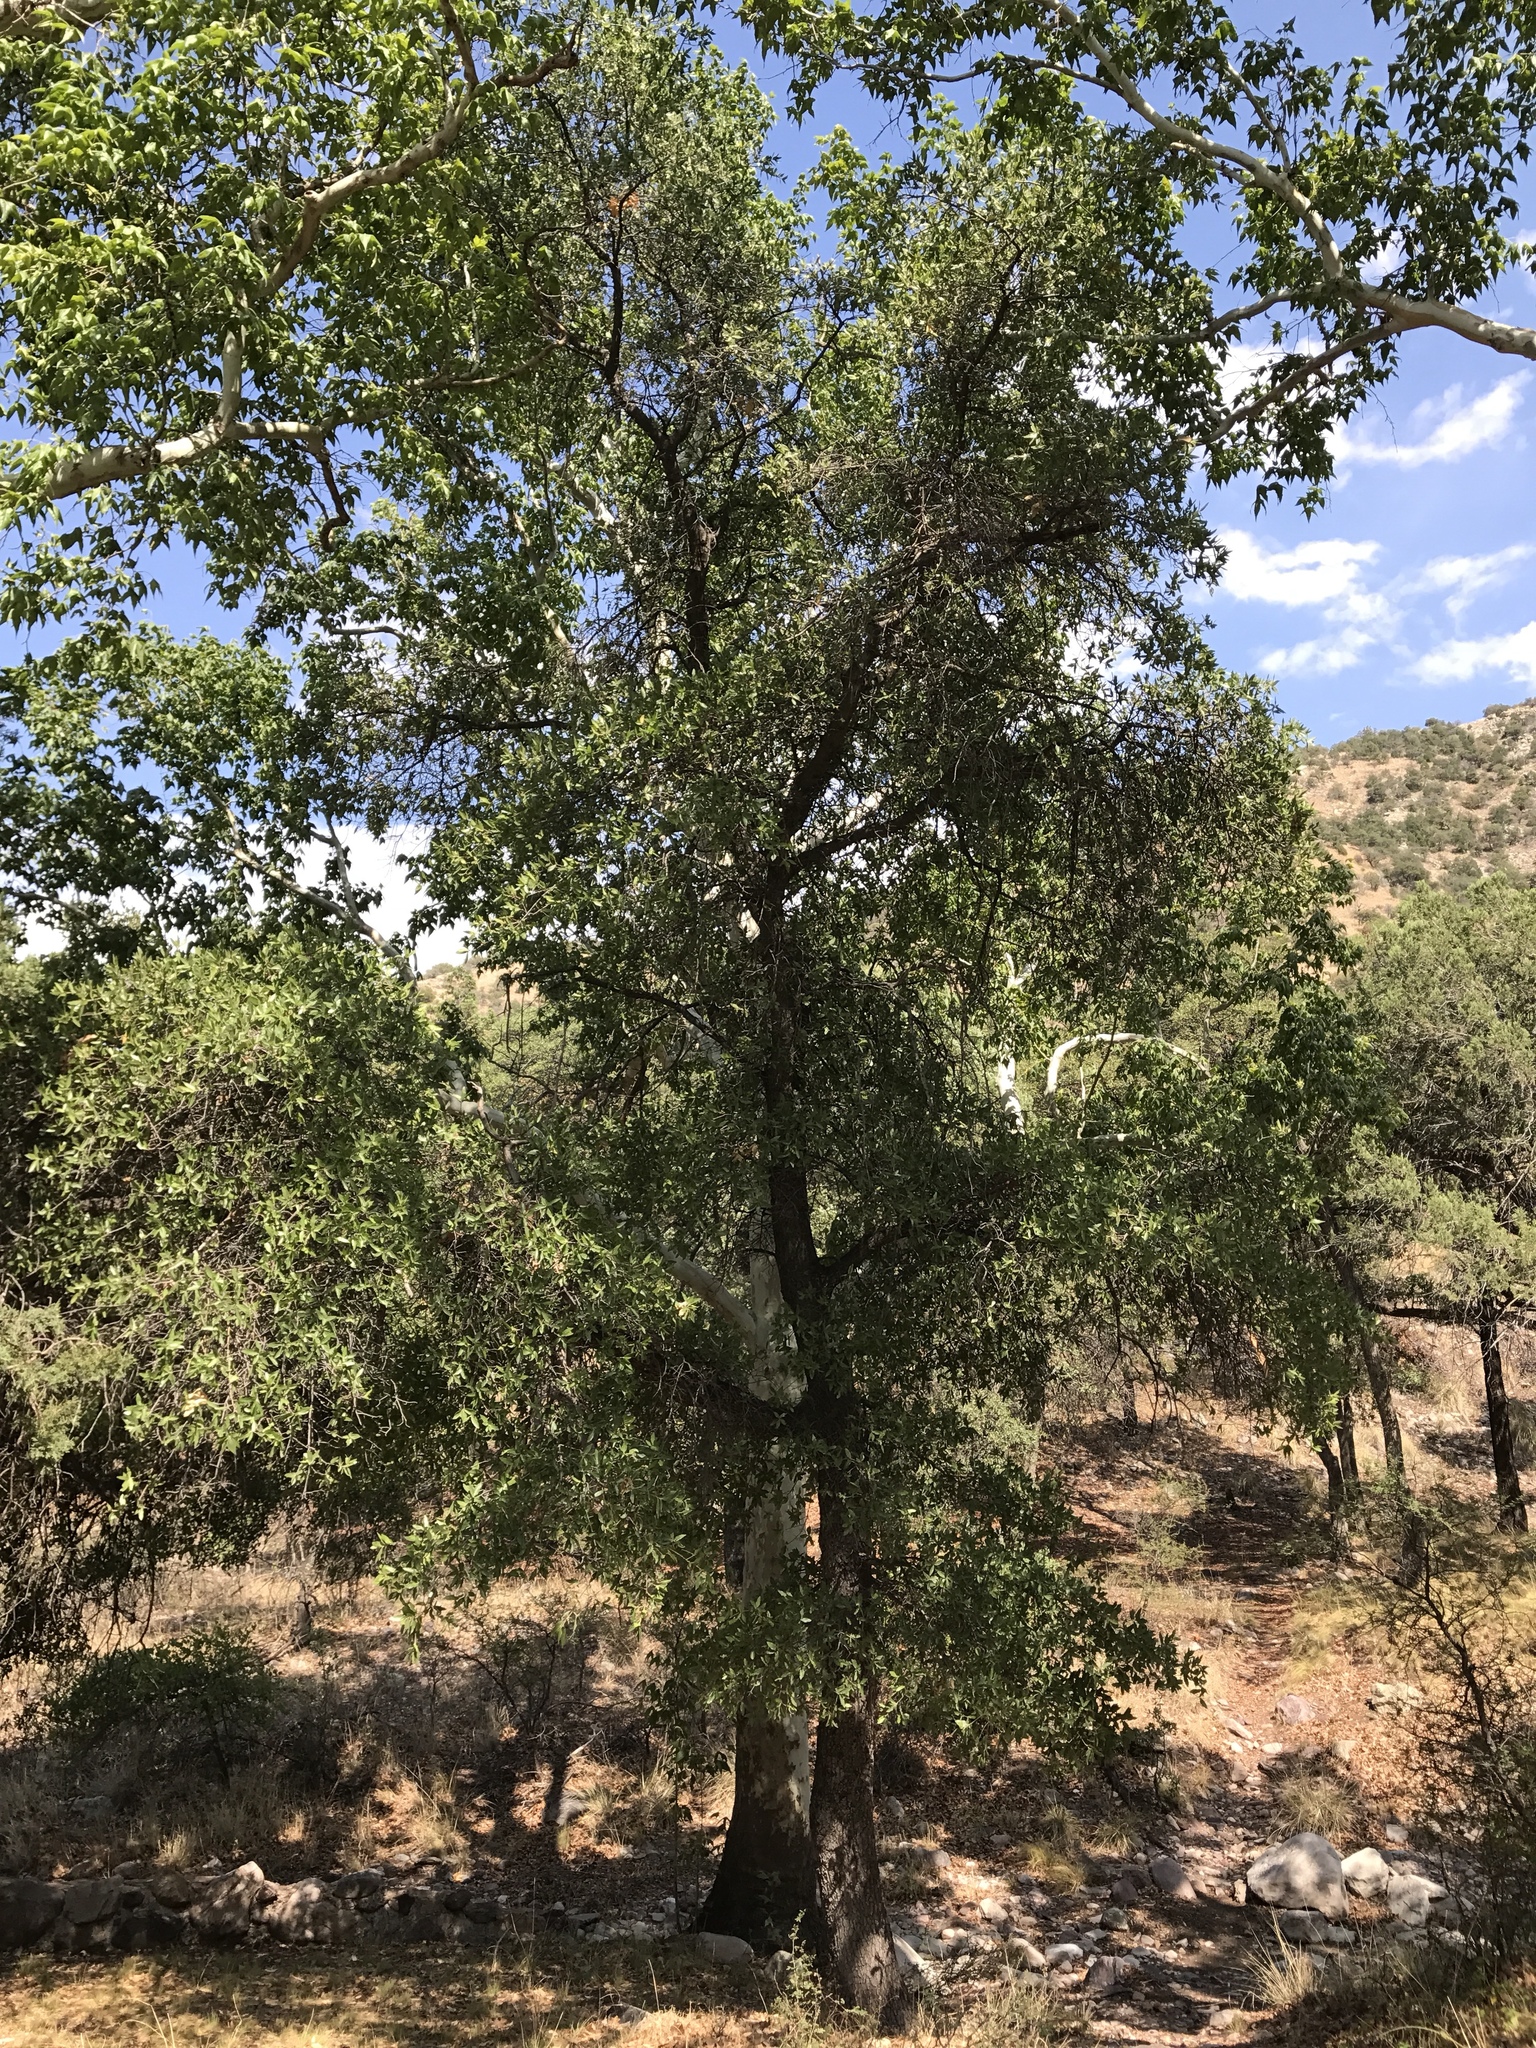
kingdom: Plantae
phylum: Tracheophyta
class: Magnoliopsida
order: Fagales
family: Fagaceae
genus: Quercus
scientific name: Quercus emoryi
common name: Emory oak
